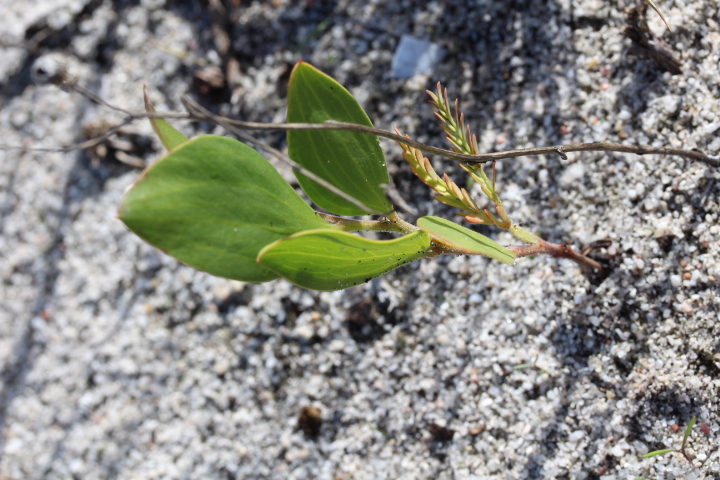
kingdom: Plantae
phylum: Tracheophyta
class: Magnoliopsida
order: Fabales
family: Fabaceae
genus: Acacia
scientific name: Acacia cyclops
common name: Coastal wattle
